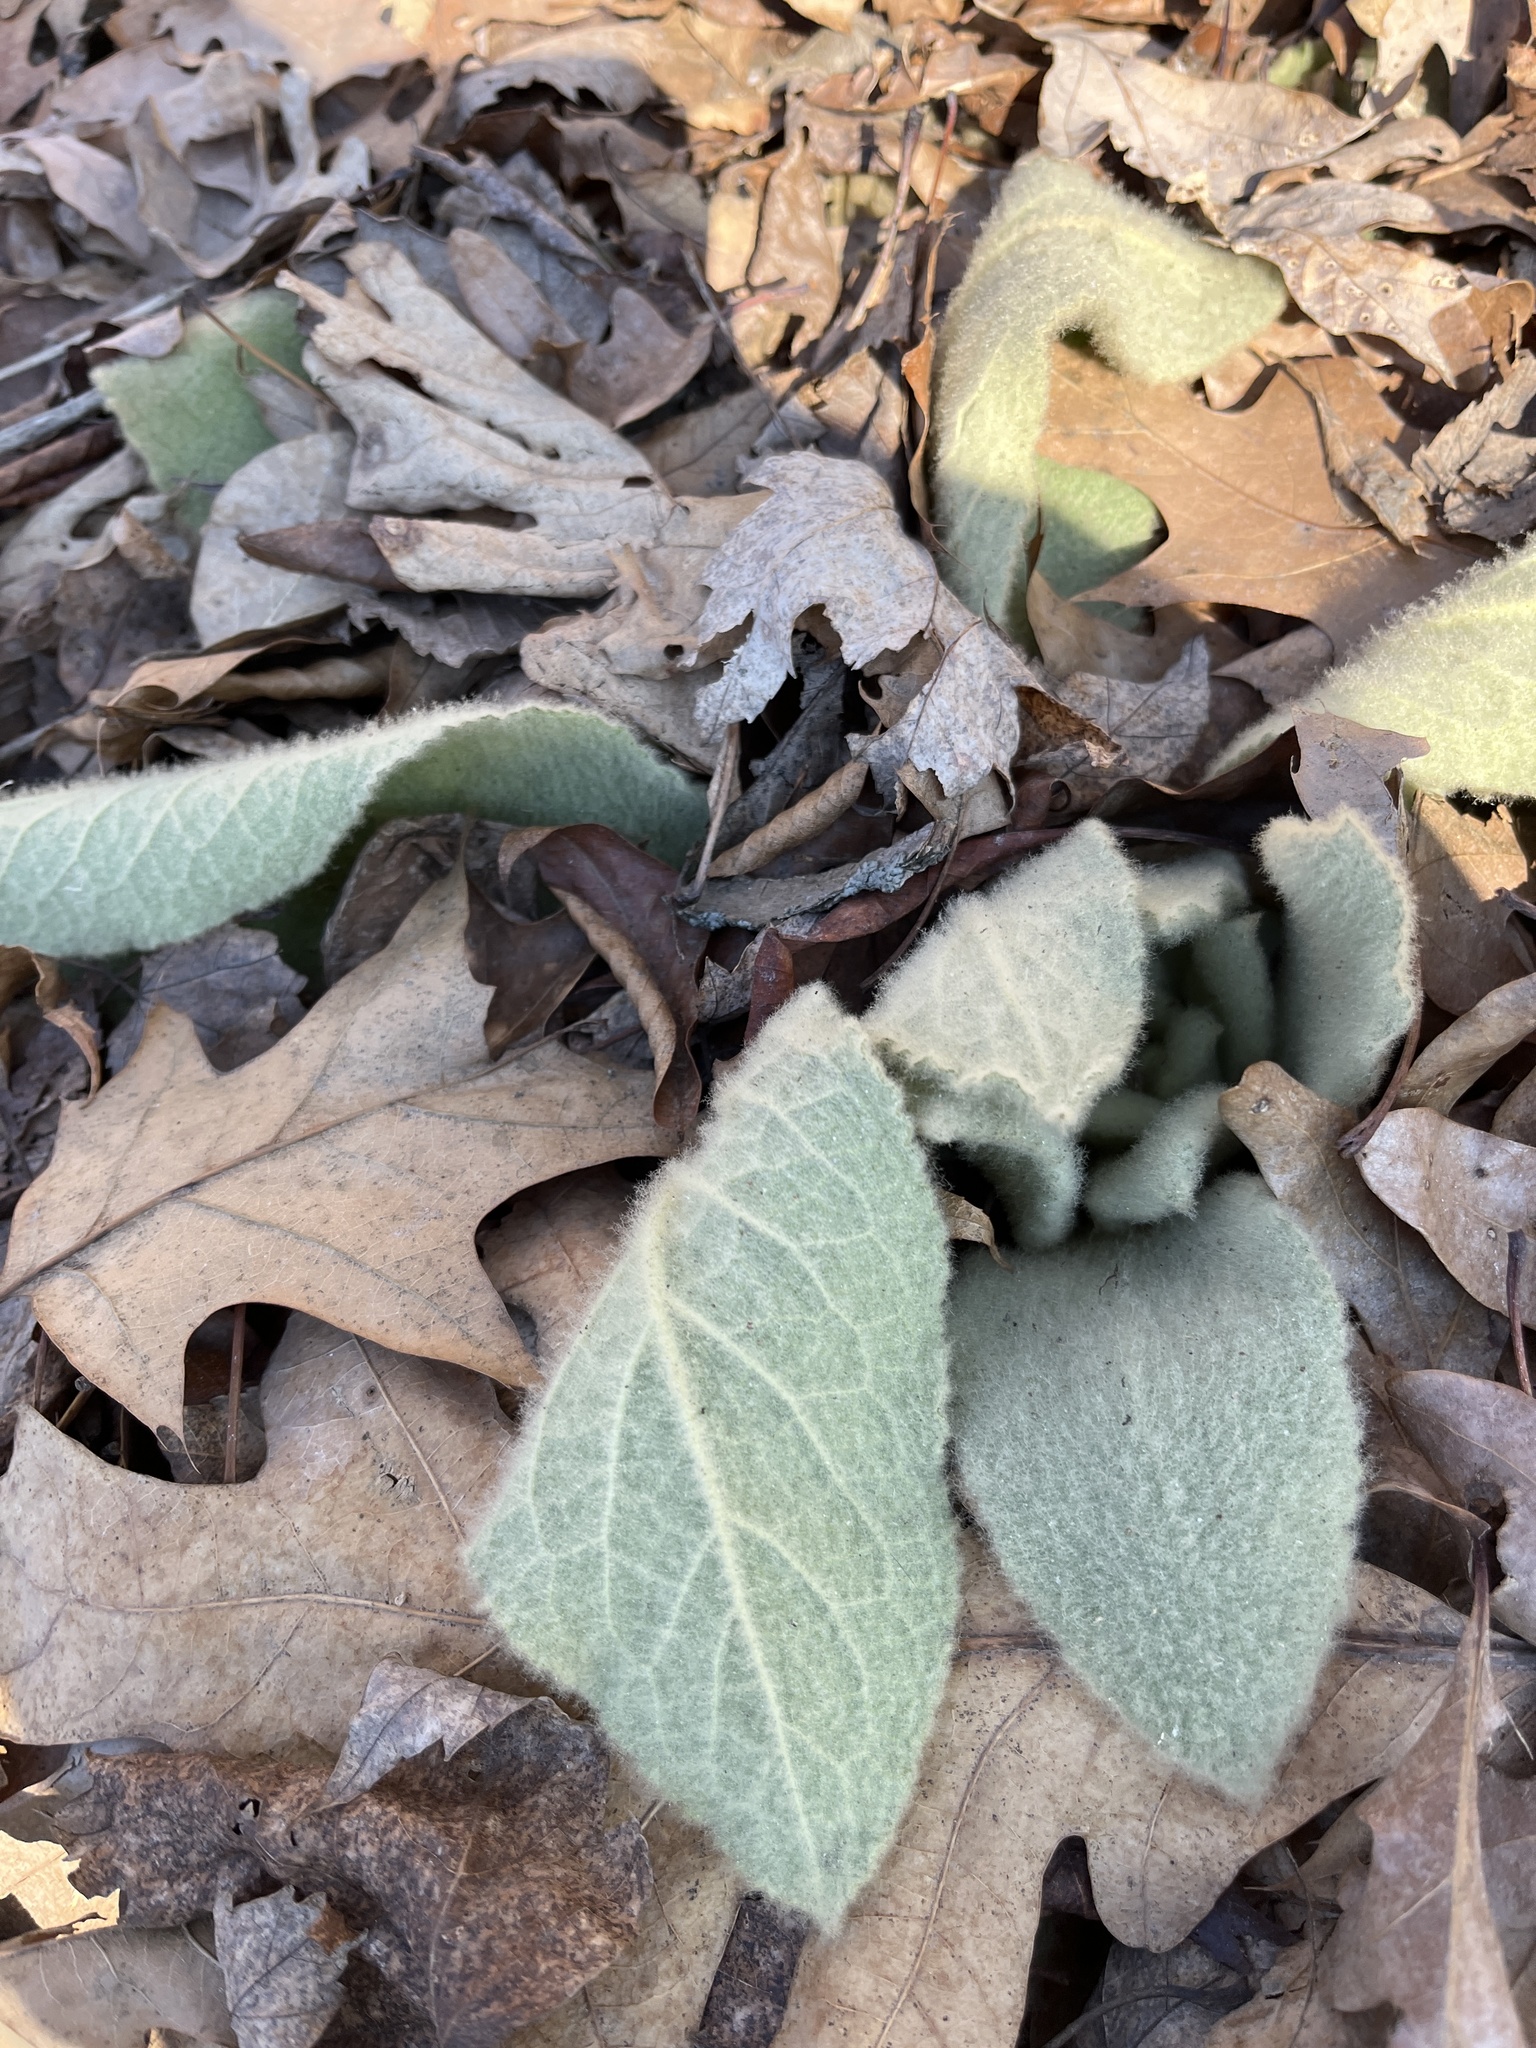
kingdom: Plantae
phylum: Tracheophyta
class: Magnoliopsida
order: Lamiales
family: Scrophulariaceae
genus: Verbascum
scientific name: Verbascum thapsus
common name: Common mullein
